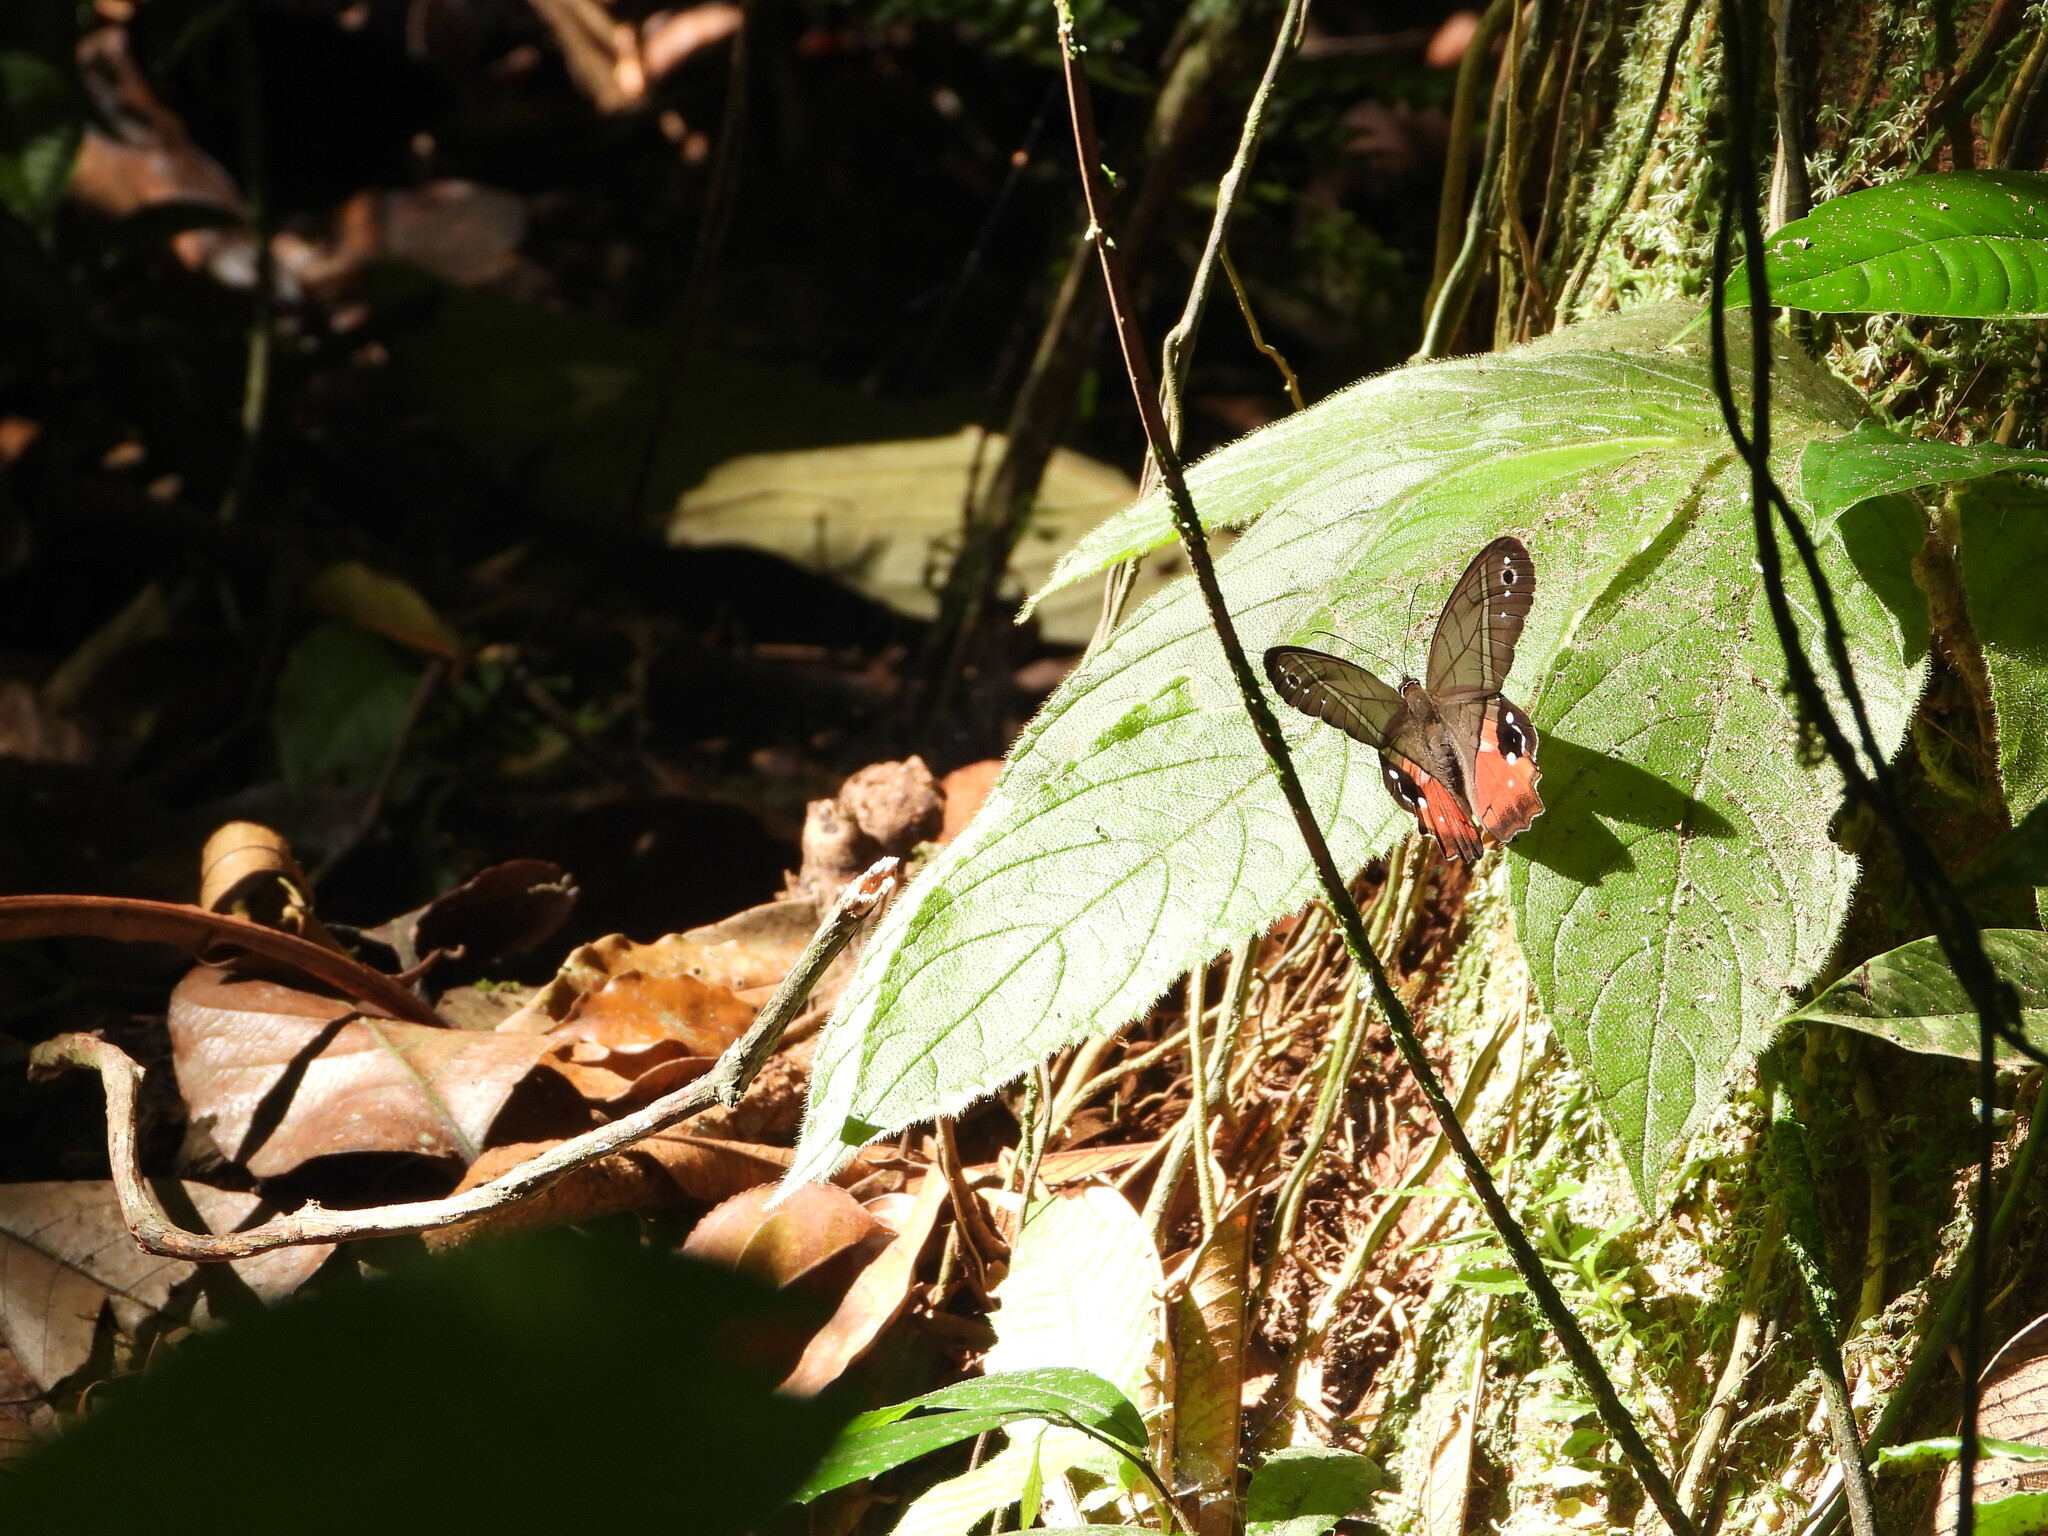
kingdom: Animalia
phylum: Arthropoda
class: Insecta
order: Lepidoptera
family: Nymphalidae
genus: Pierella
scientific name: Pierella helvina
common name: Red-washed satyr
